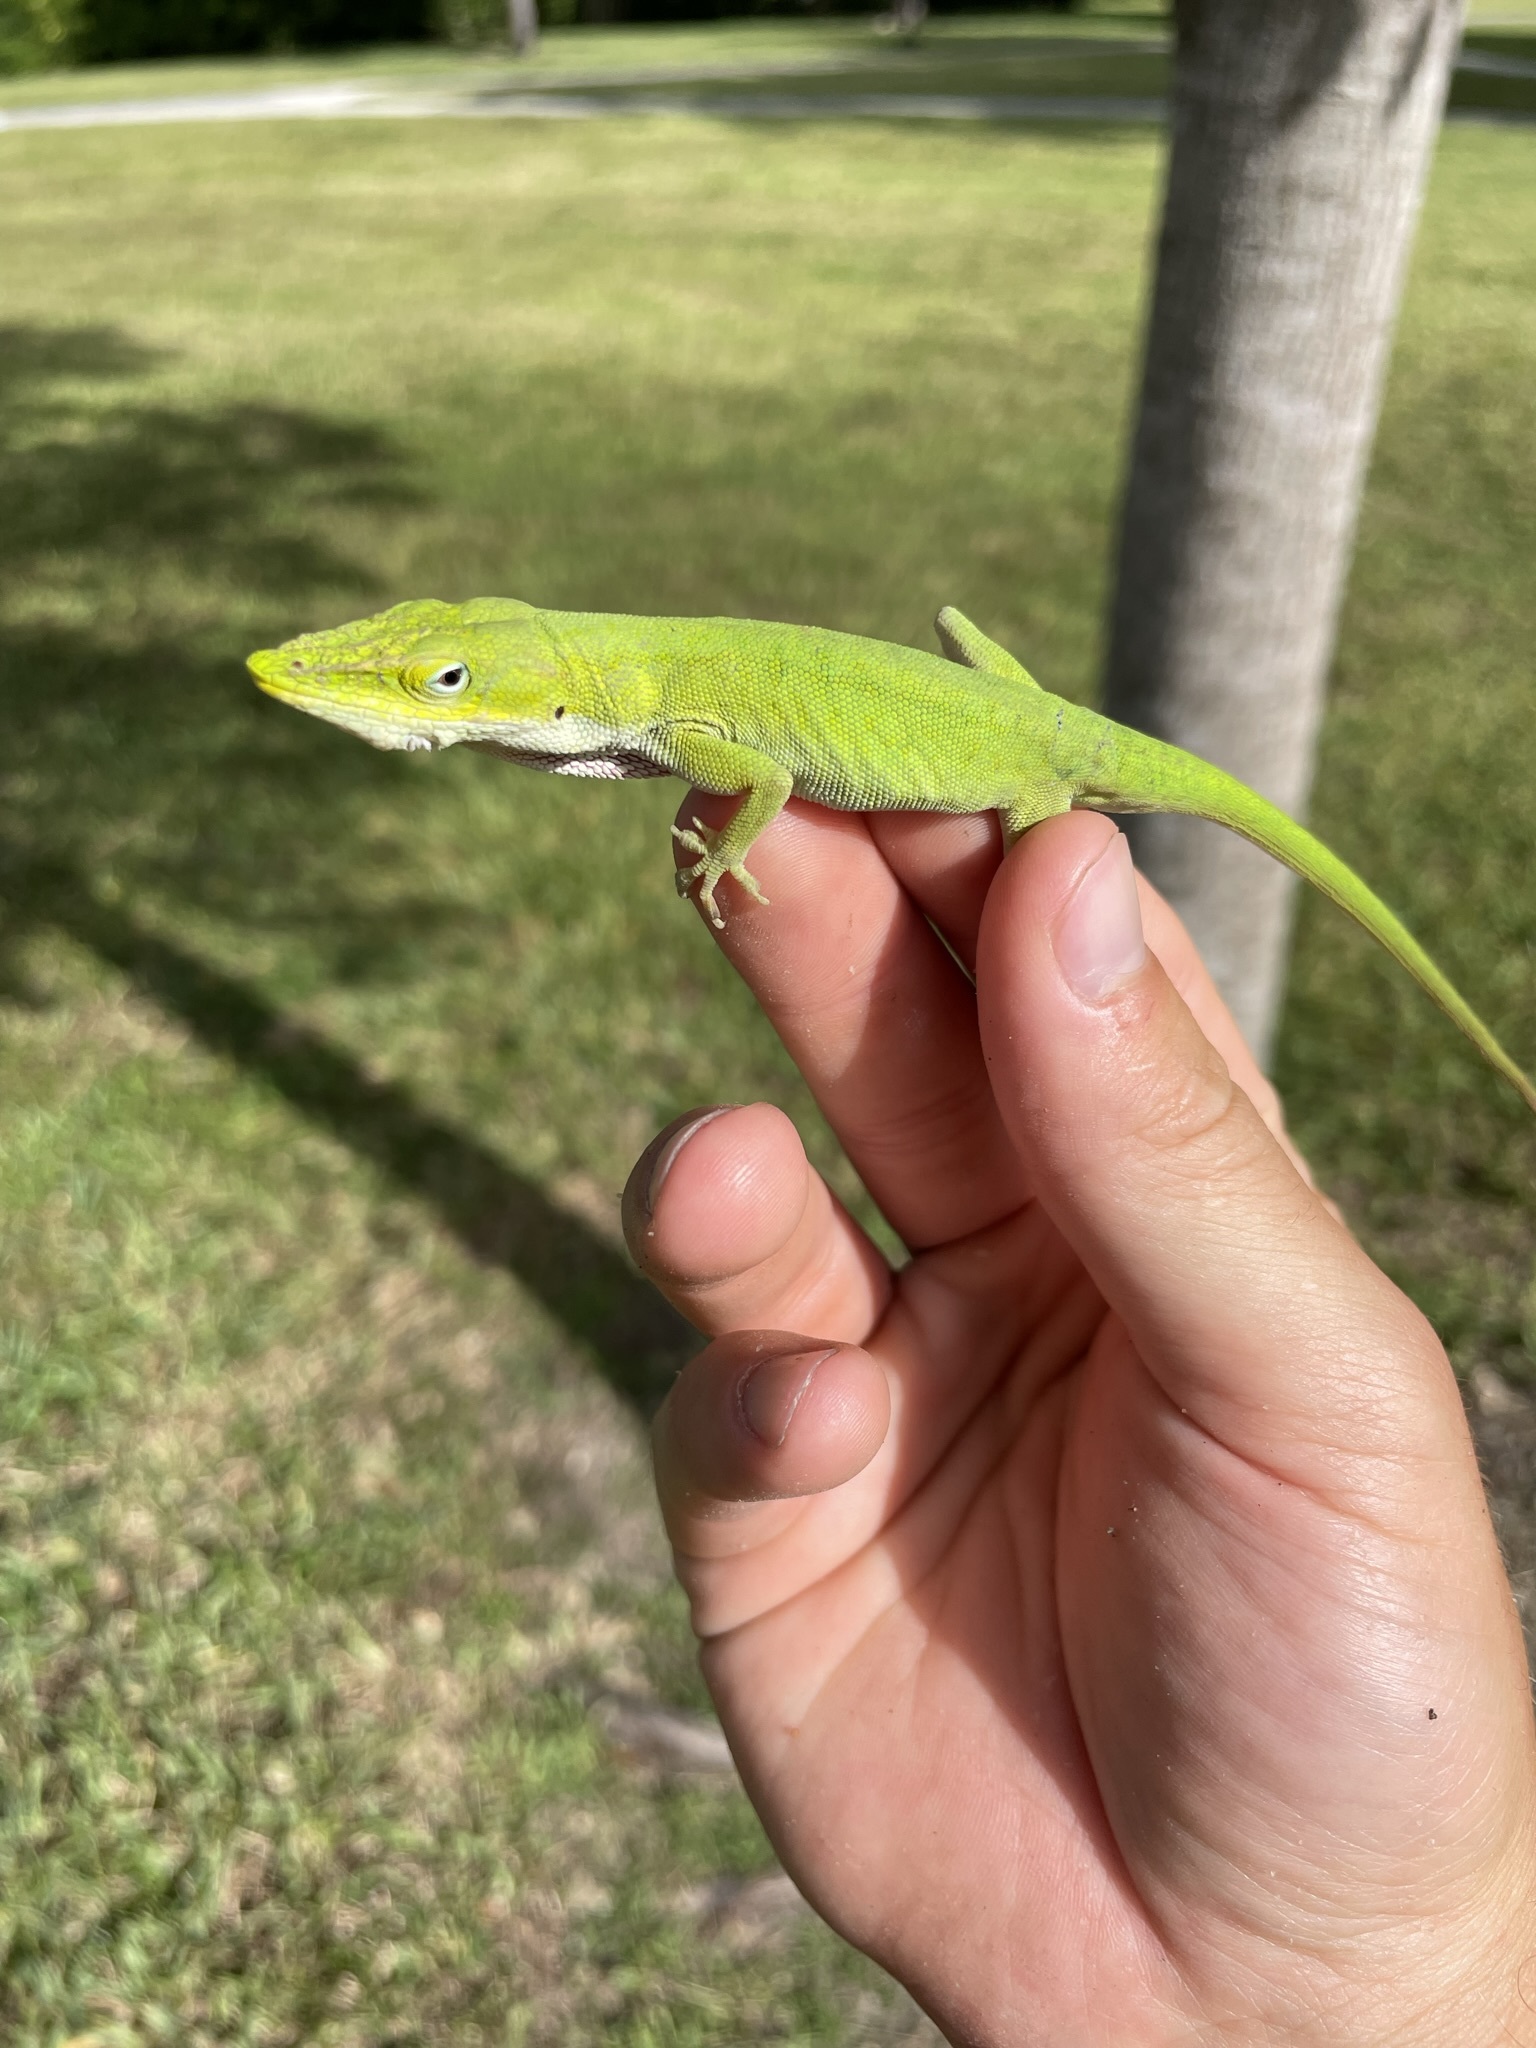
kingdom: Animalia
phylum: Chordata
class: Squamata
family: Dactyloidae
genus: Anolis
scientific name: Anolis carolinensis
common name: Green anole
